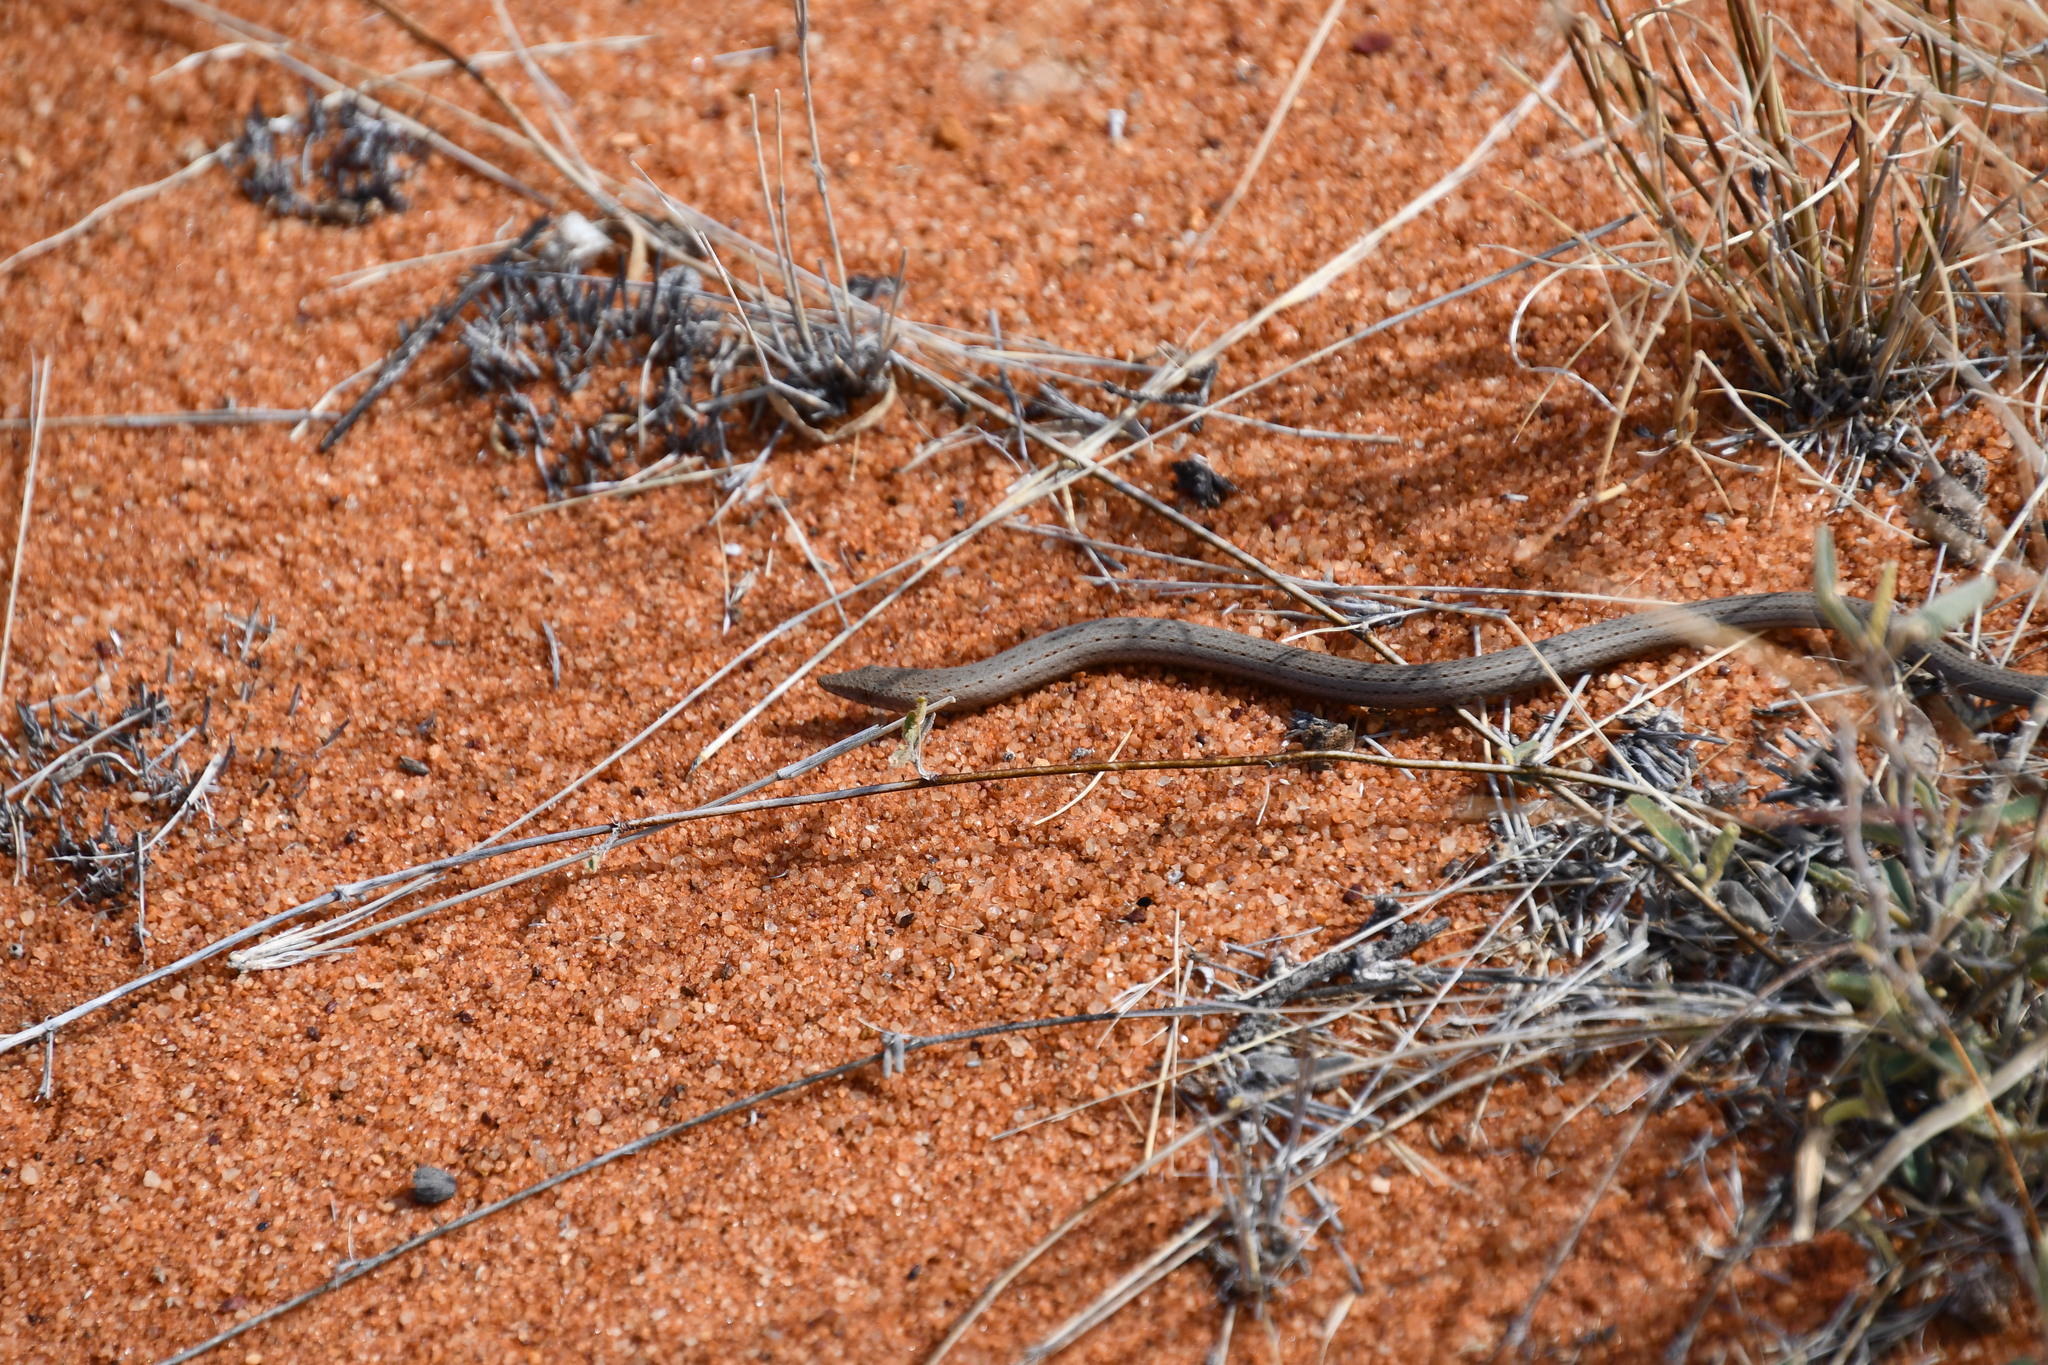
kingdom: Animalia
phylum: Chordata
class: Squamata
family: Pygopodidae
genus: Lialis
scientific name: Lialis burtonis
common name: Burton's legless lizard
